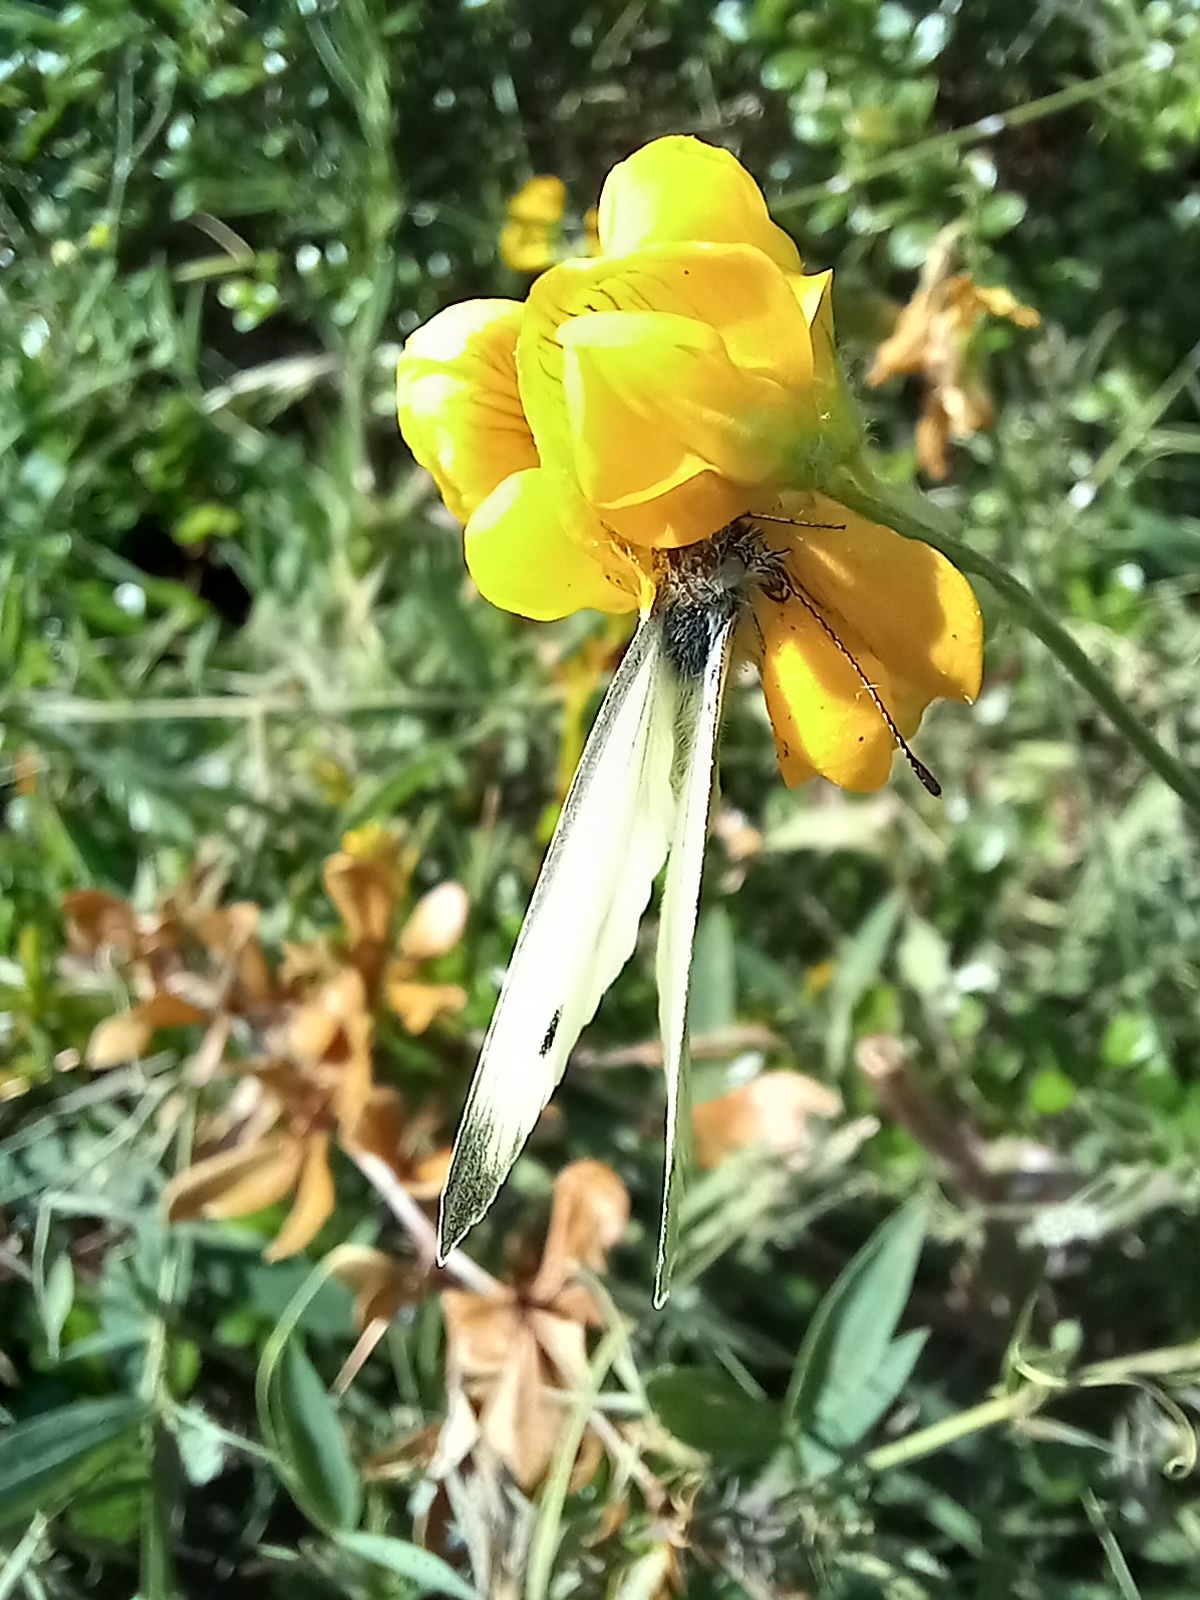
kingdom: Animalia
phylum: Arthropoda
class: Insecta
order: Lepidoptera
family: Pieridae
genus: Pieris
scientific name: Pieris napi
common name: Green-veined white
